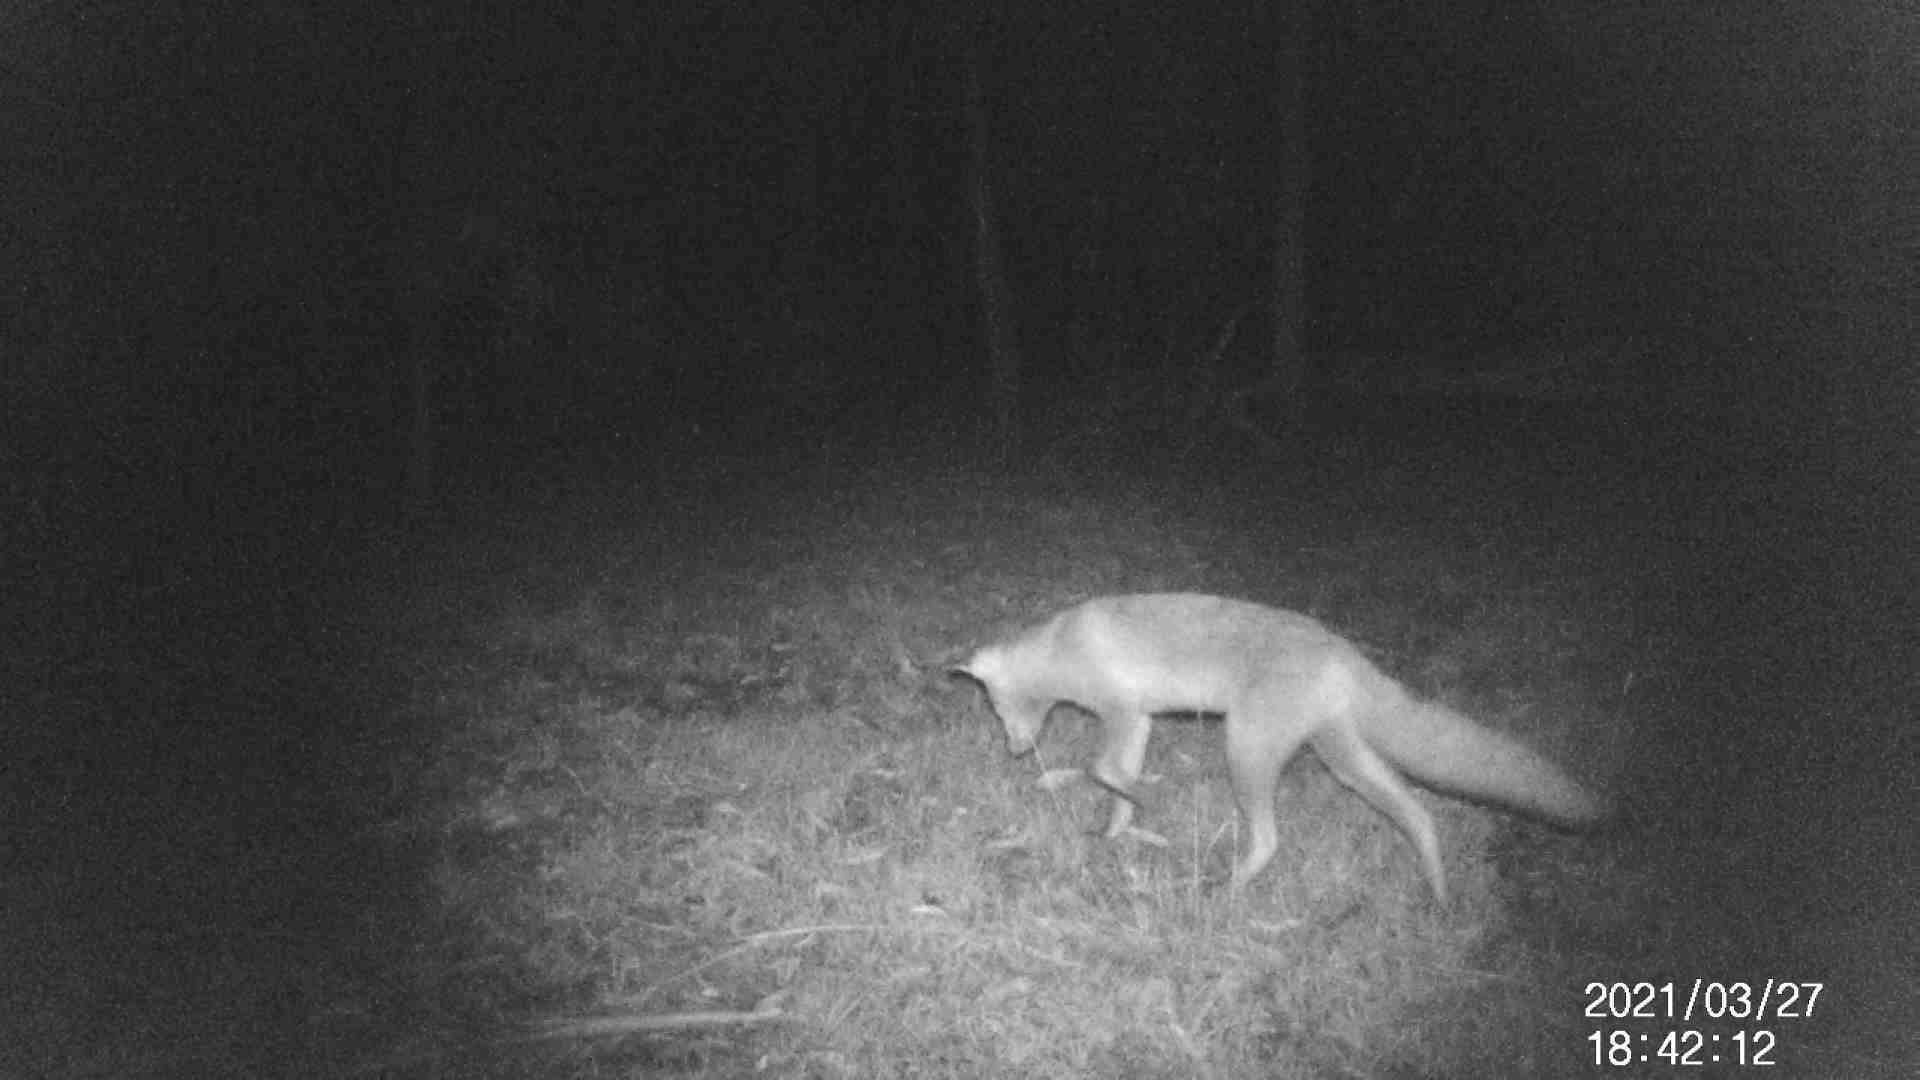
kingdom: Animalia
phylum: Chordata
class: Mammalia
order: Carnivora
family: Canidae
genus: Vulpes
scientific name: Vulpes vulpes
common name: Red fox
